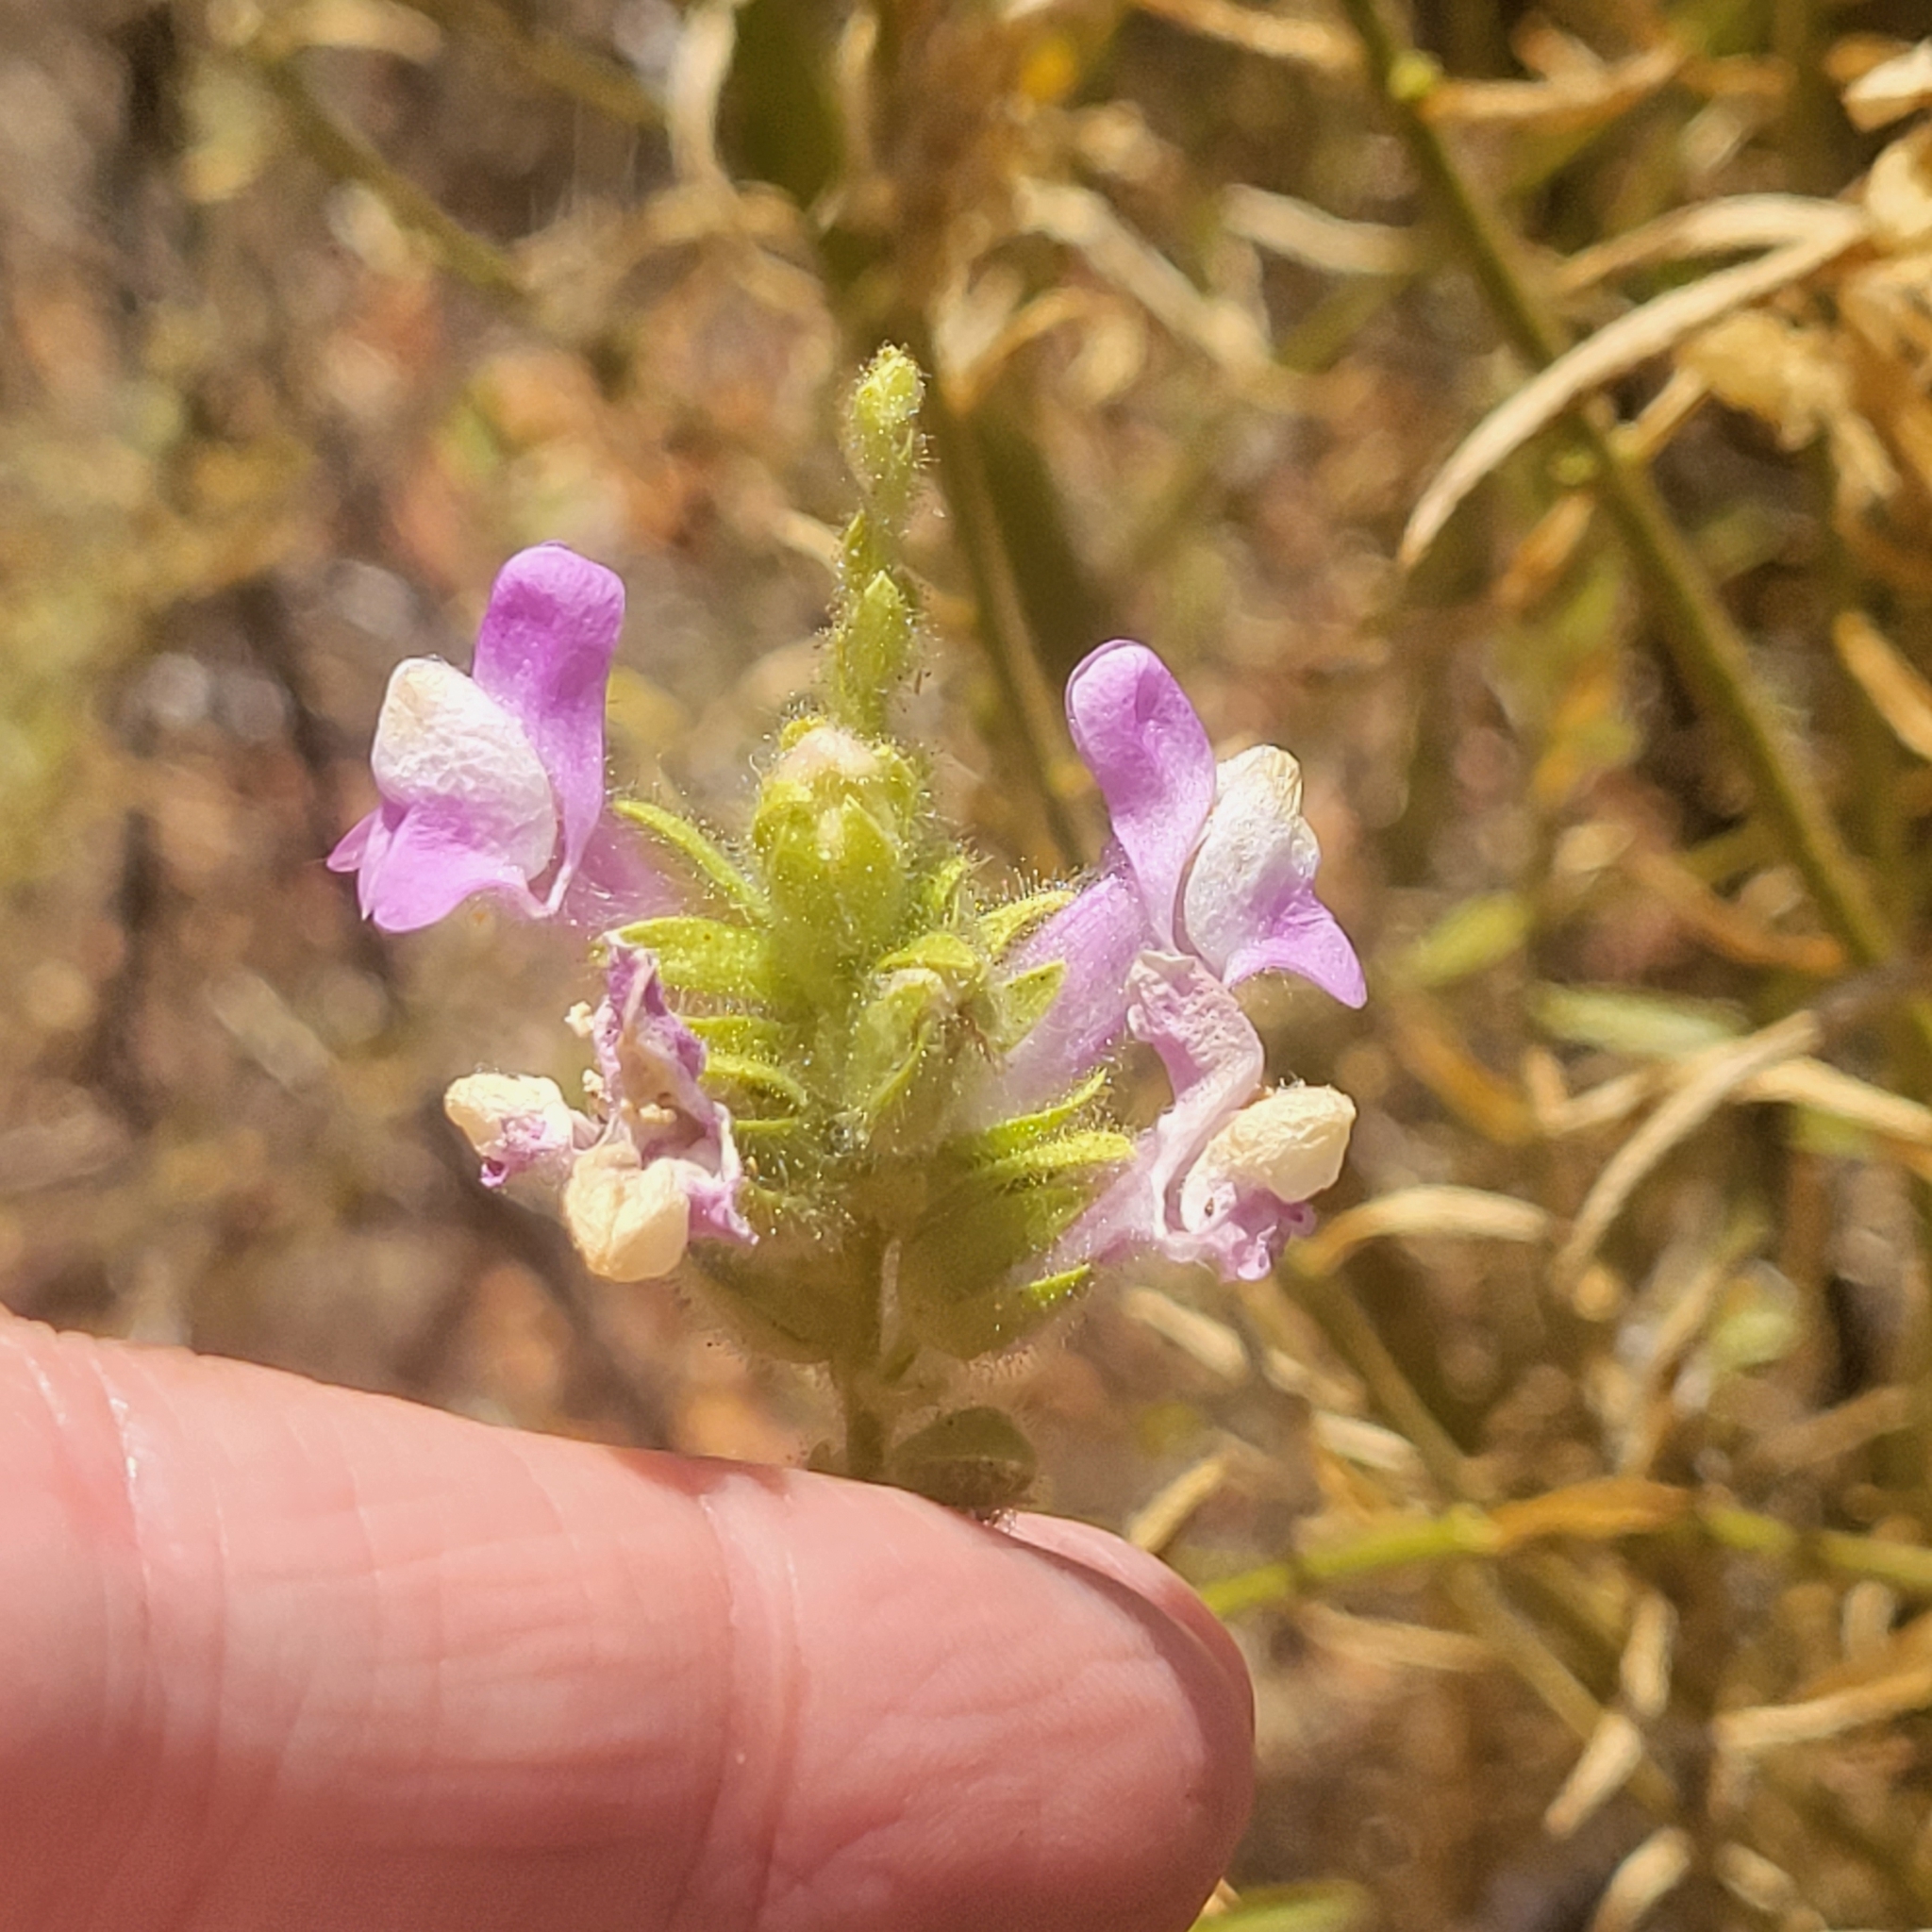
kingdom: Plantae
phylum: Tracheophyta
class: Magnoliopsida
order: Lamiales
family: Plantaginaceae
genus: Sairocarpus
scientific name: Sairocarpus multiflorus
